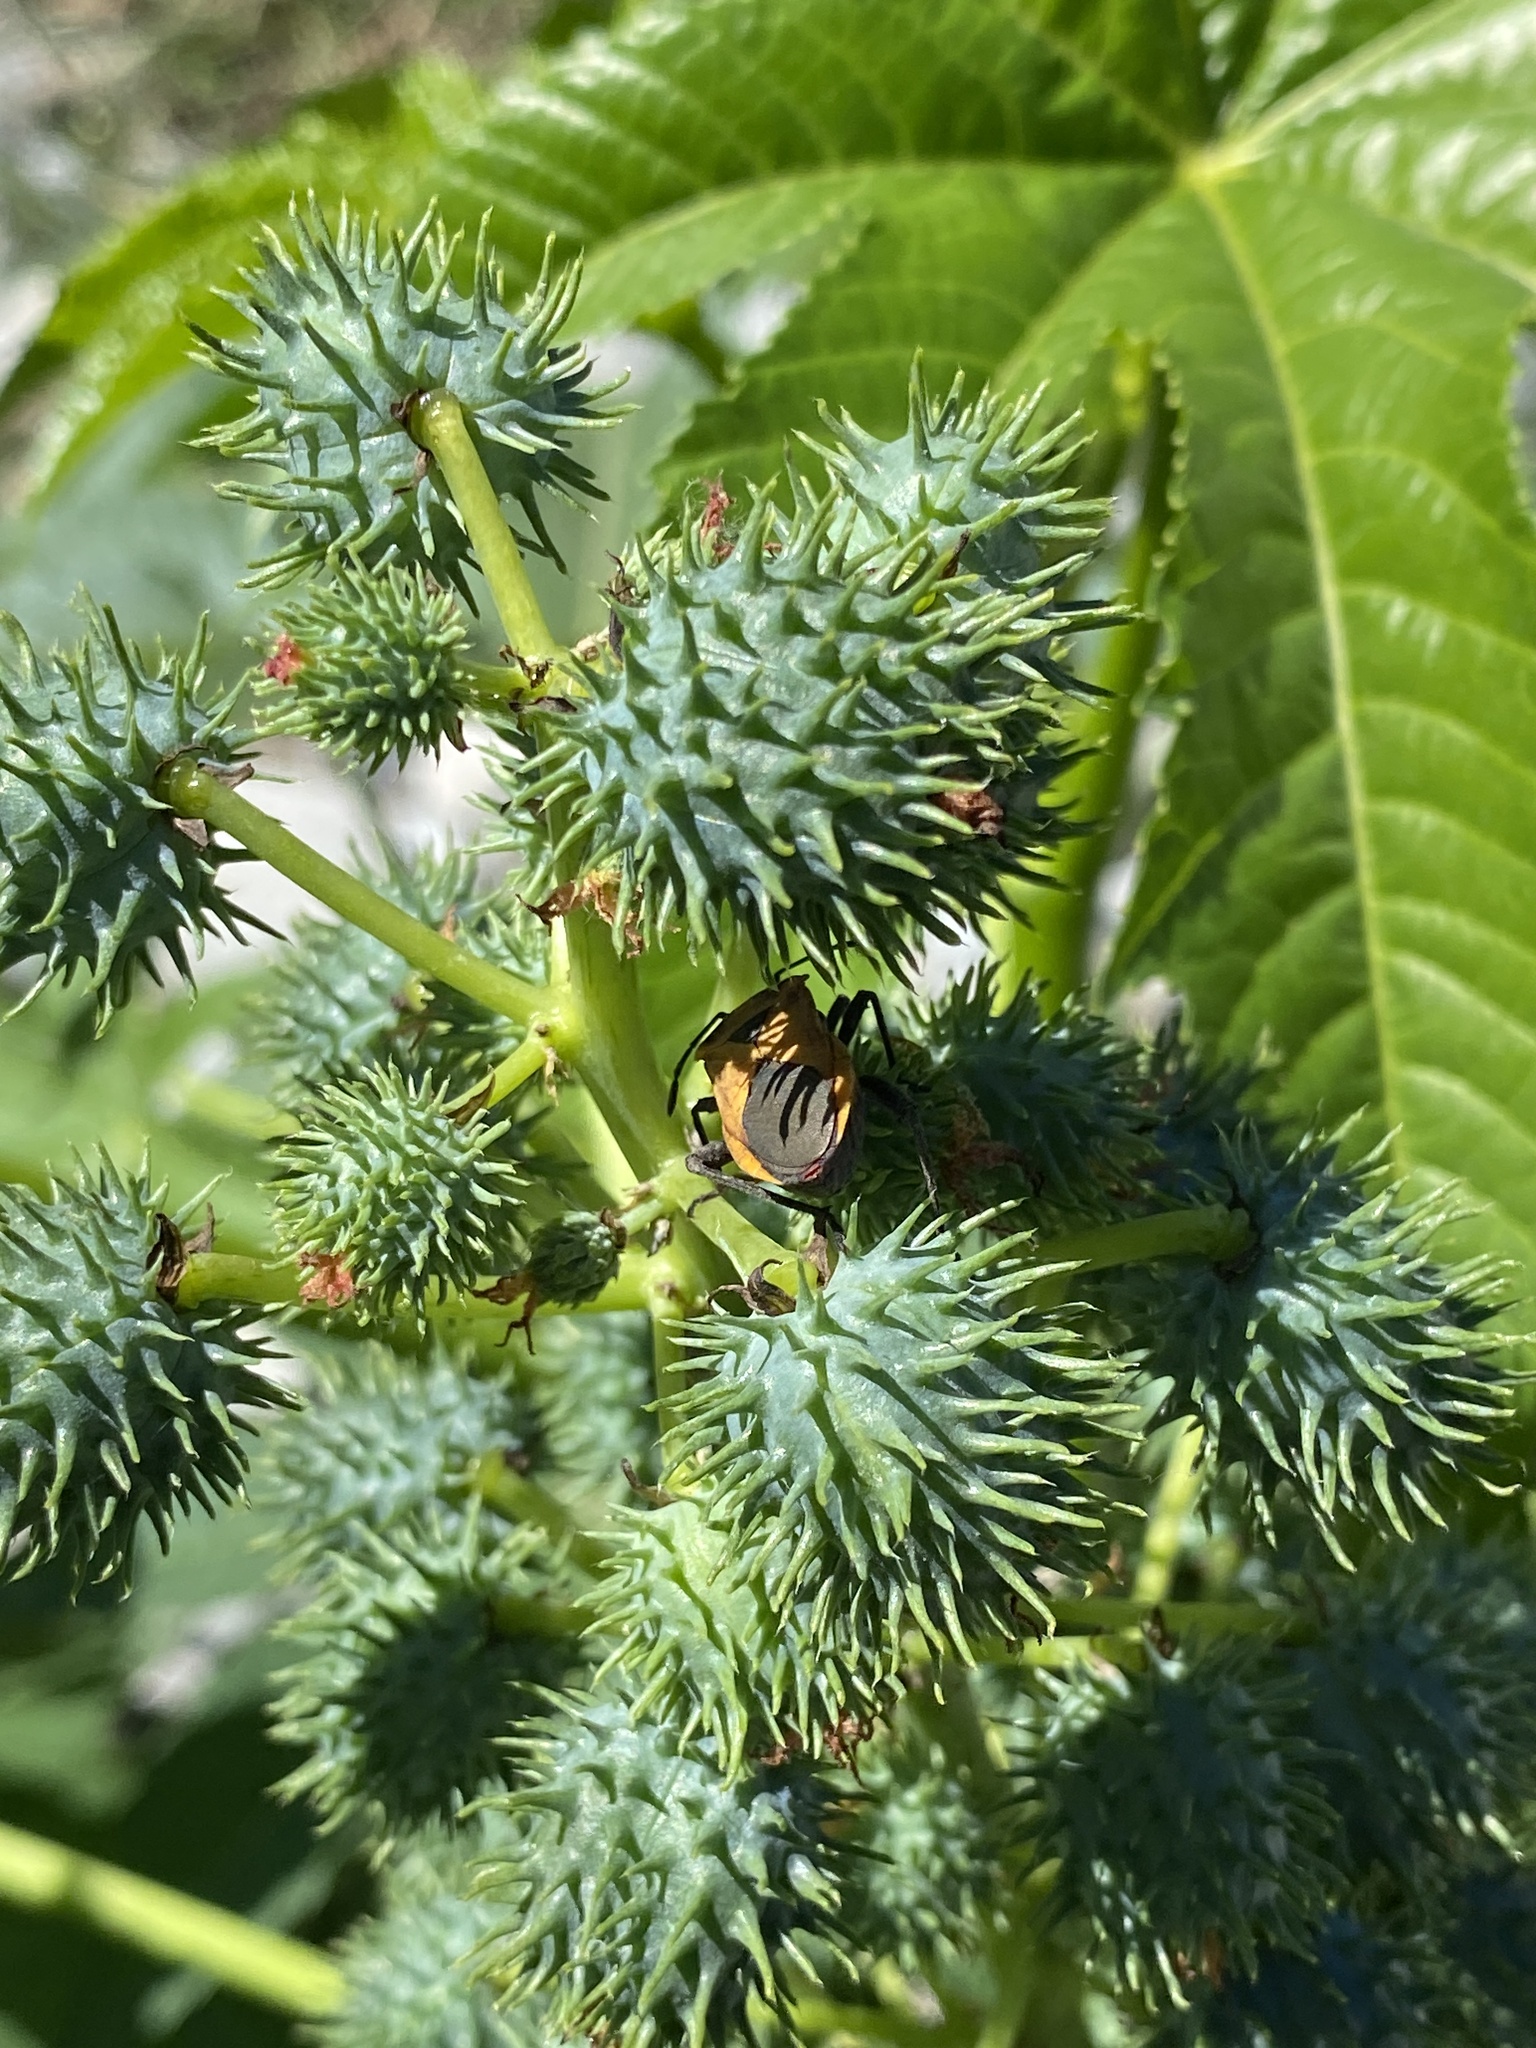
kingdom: Plantae
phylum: Tracheophyta
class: Magnoliopsida
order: Malpighiales
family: Euphorbiaceae
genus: Ricinus
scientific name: Ricinus communis
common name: Castor-oil-plant
